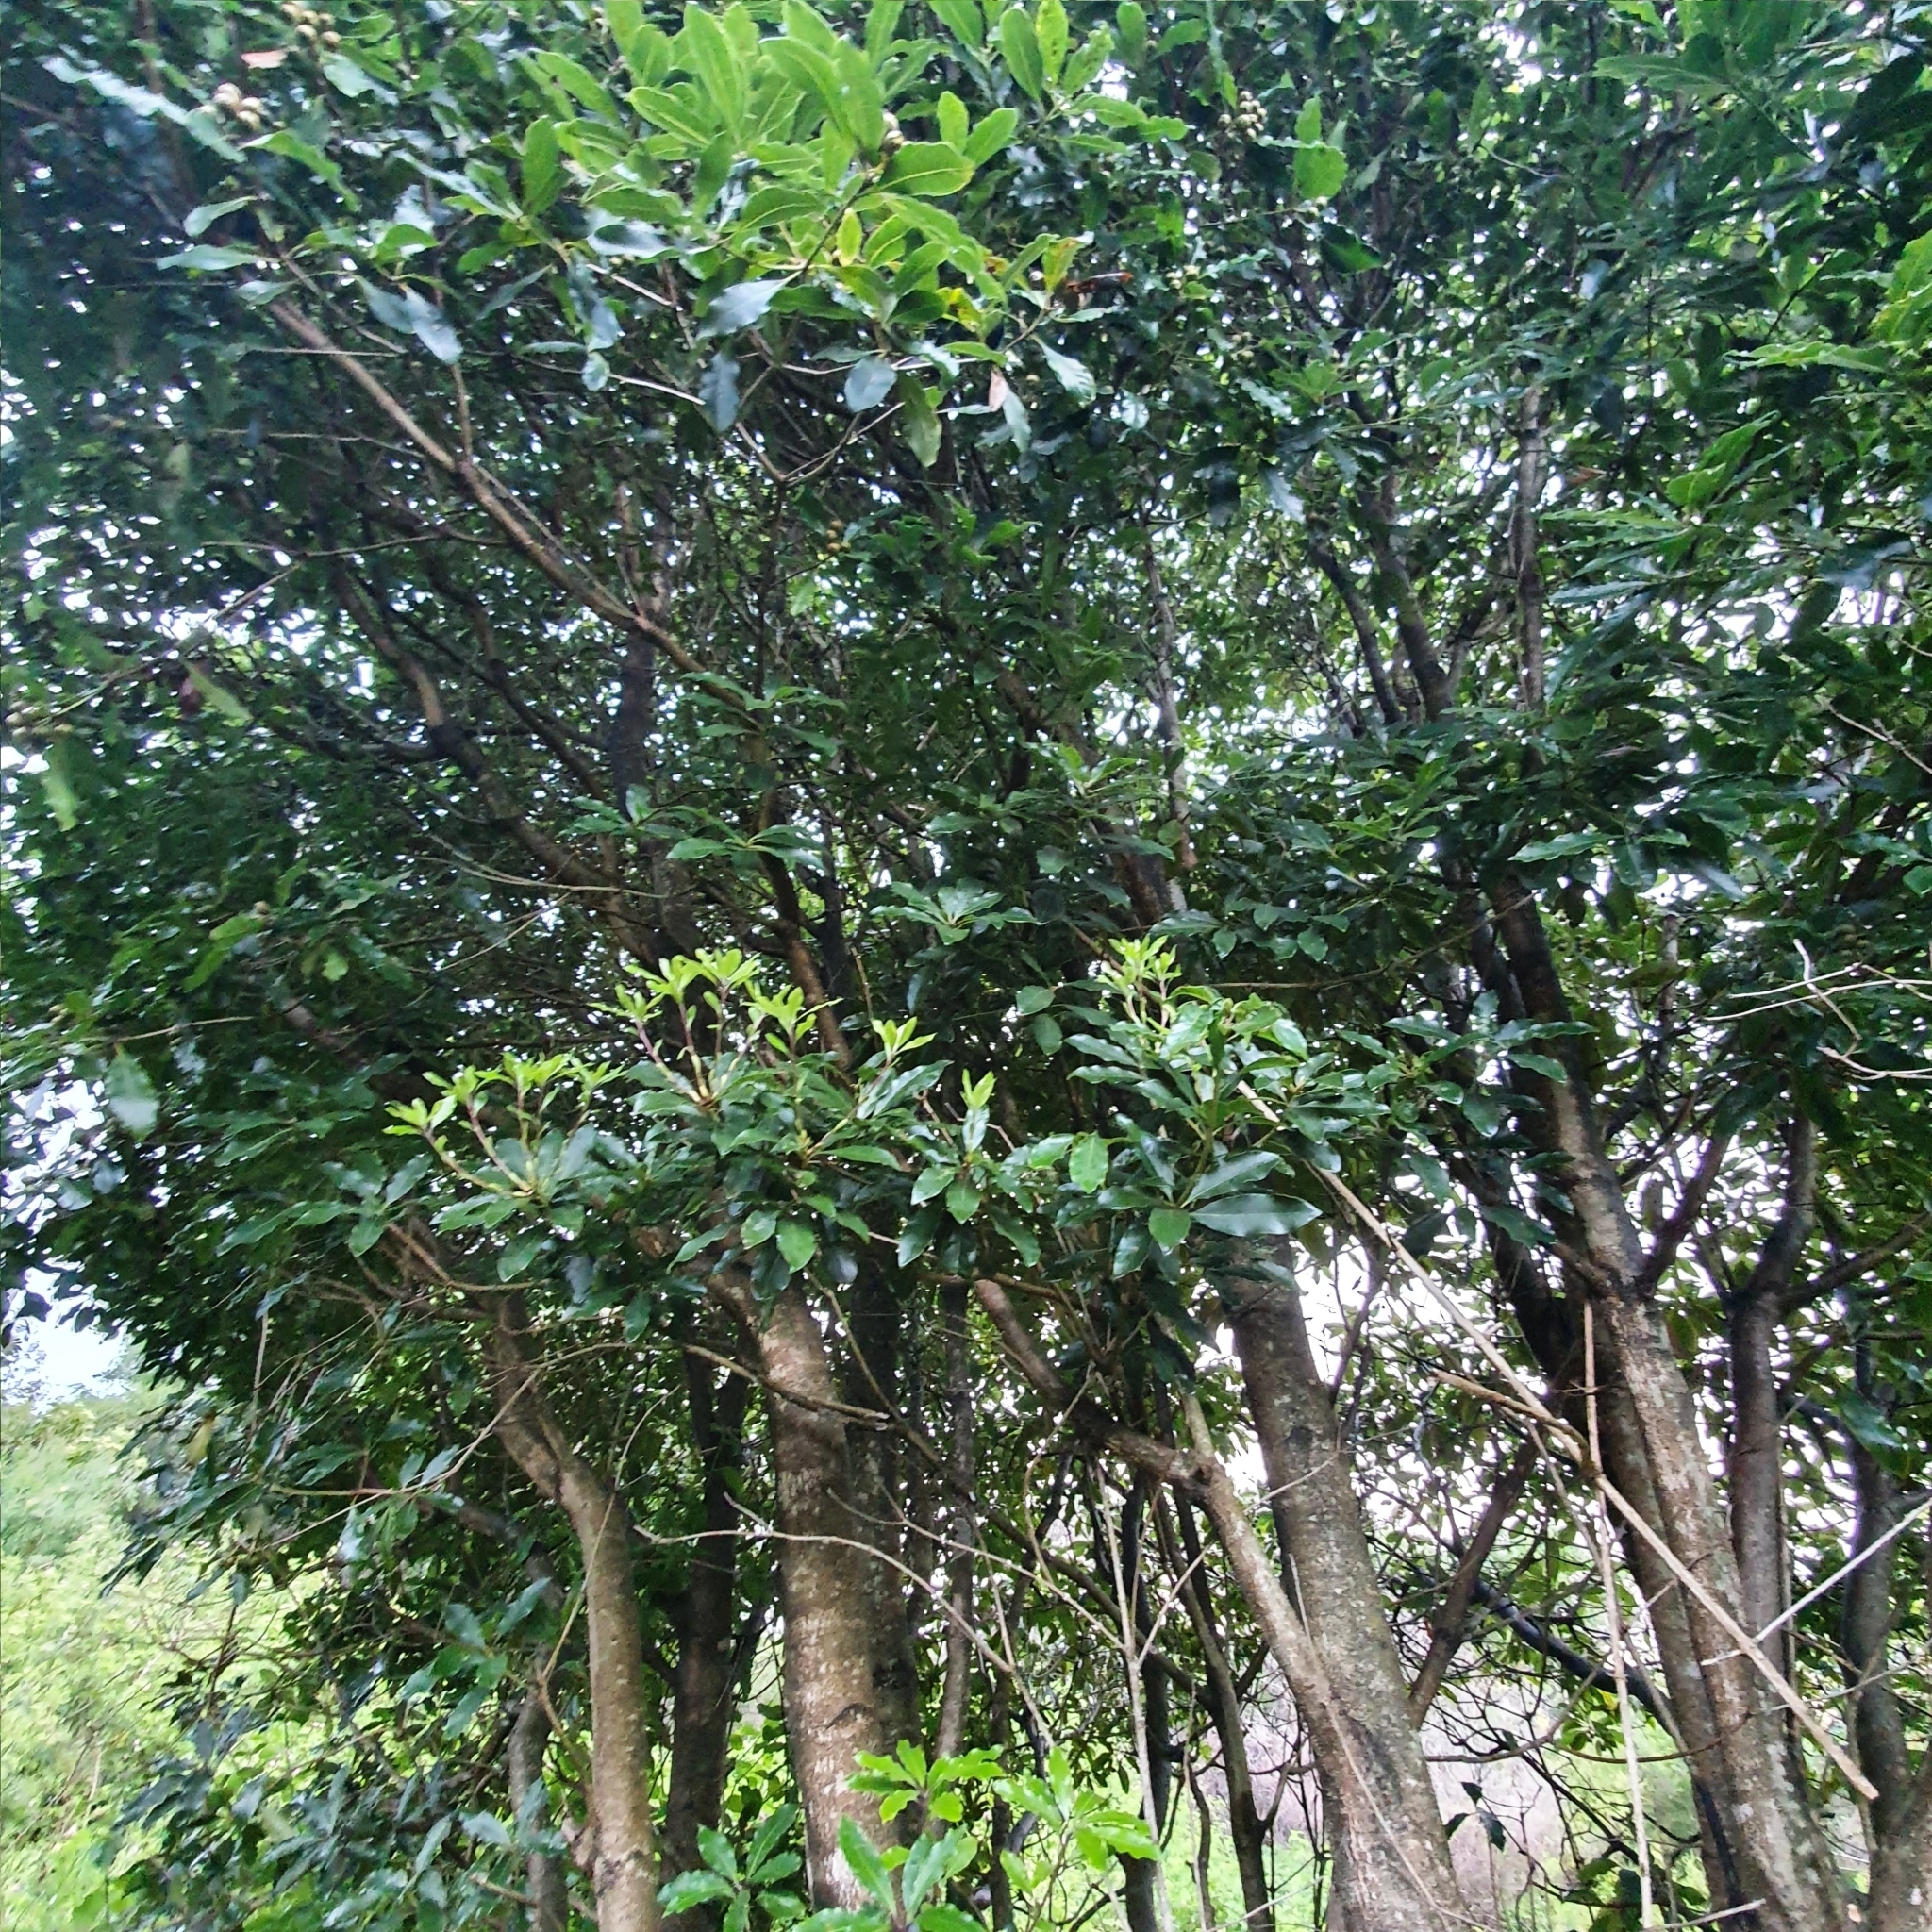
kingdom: Plantae
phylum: Tracheophyta
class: Magnoliopsida
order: Apiales
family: Pittosporaceae
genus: Pittosporum
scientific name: Pittosporum undulatum
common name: Australian cheesewood
